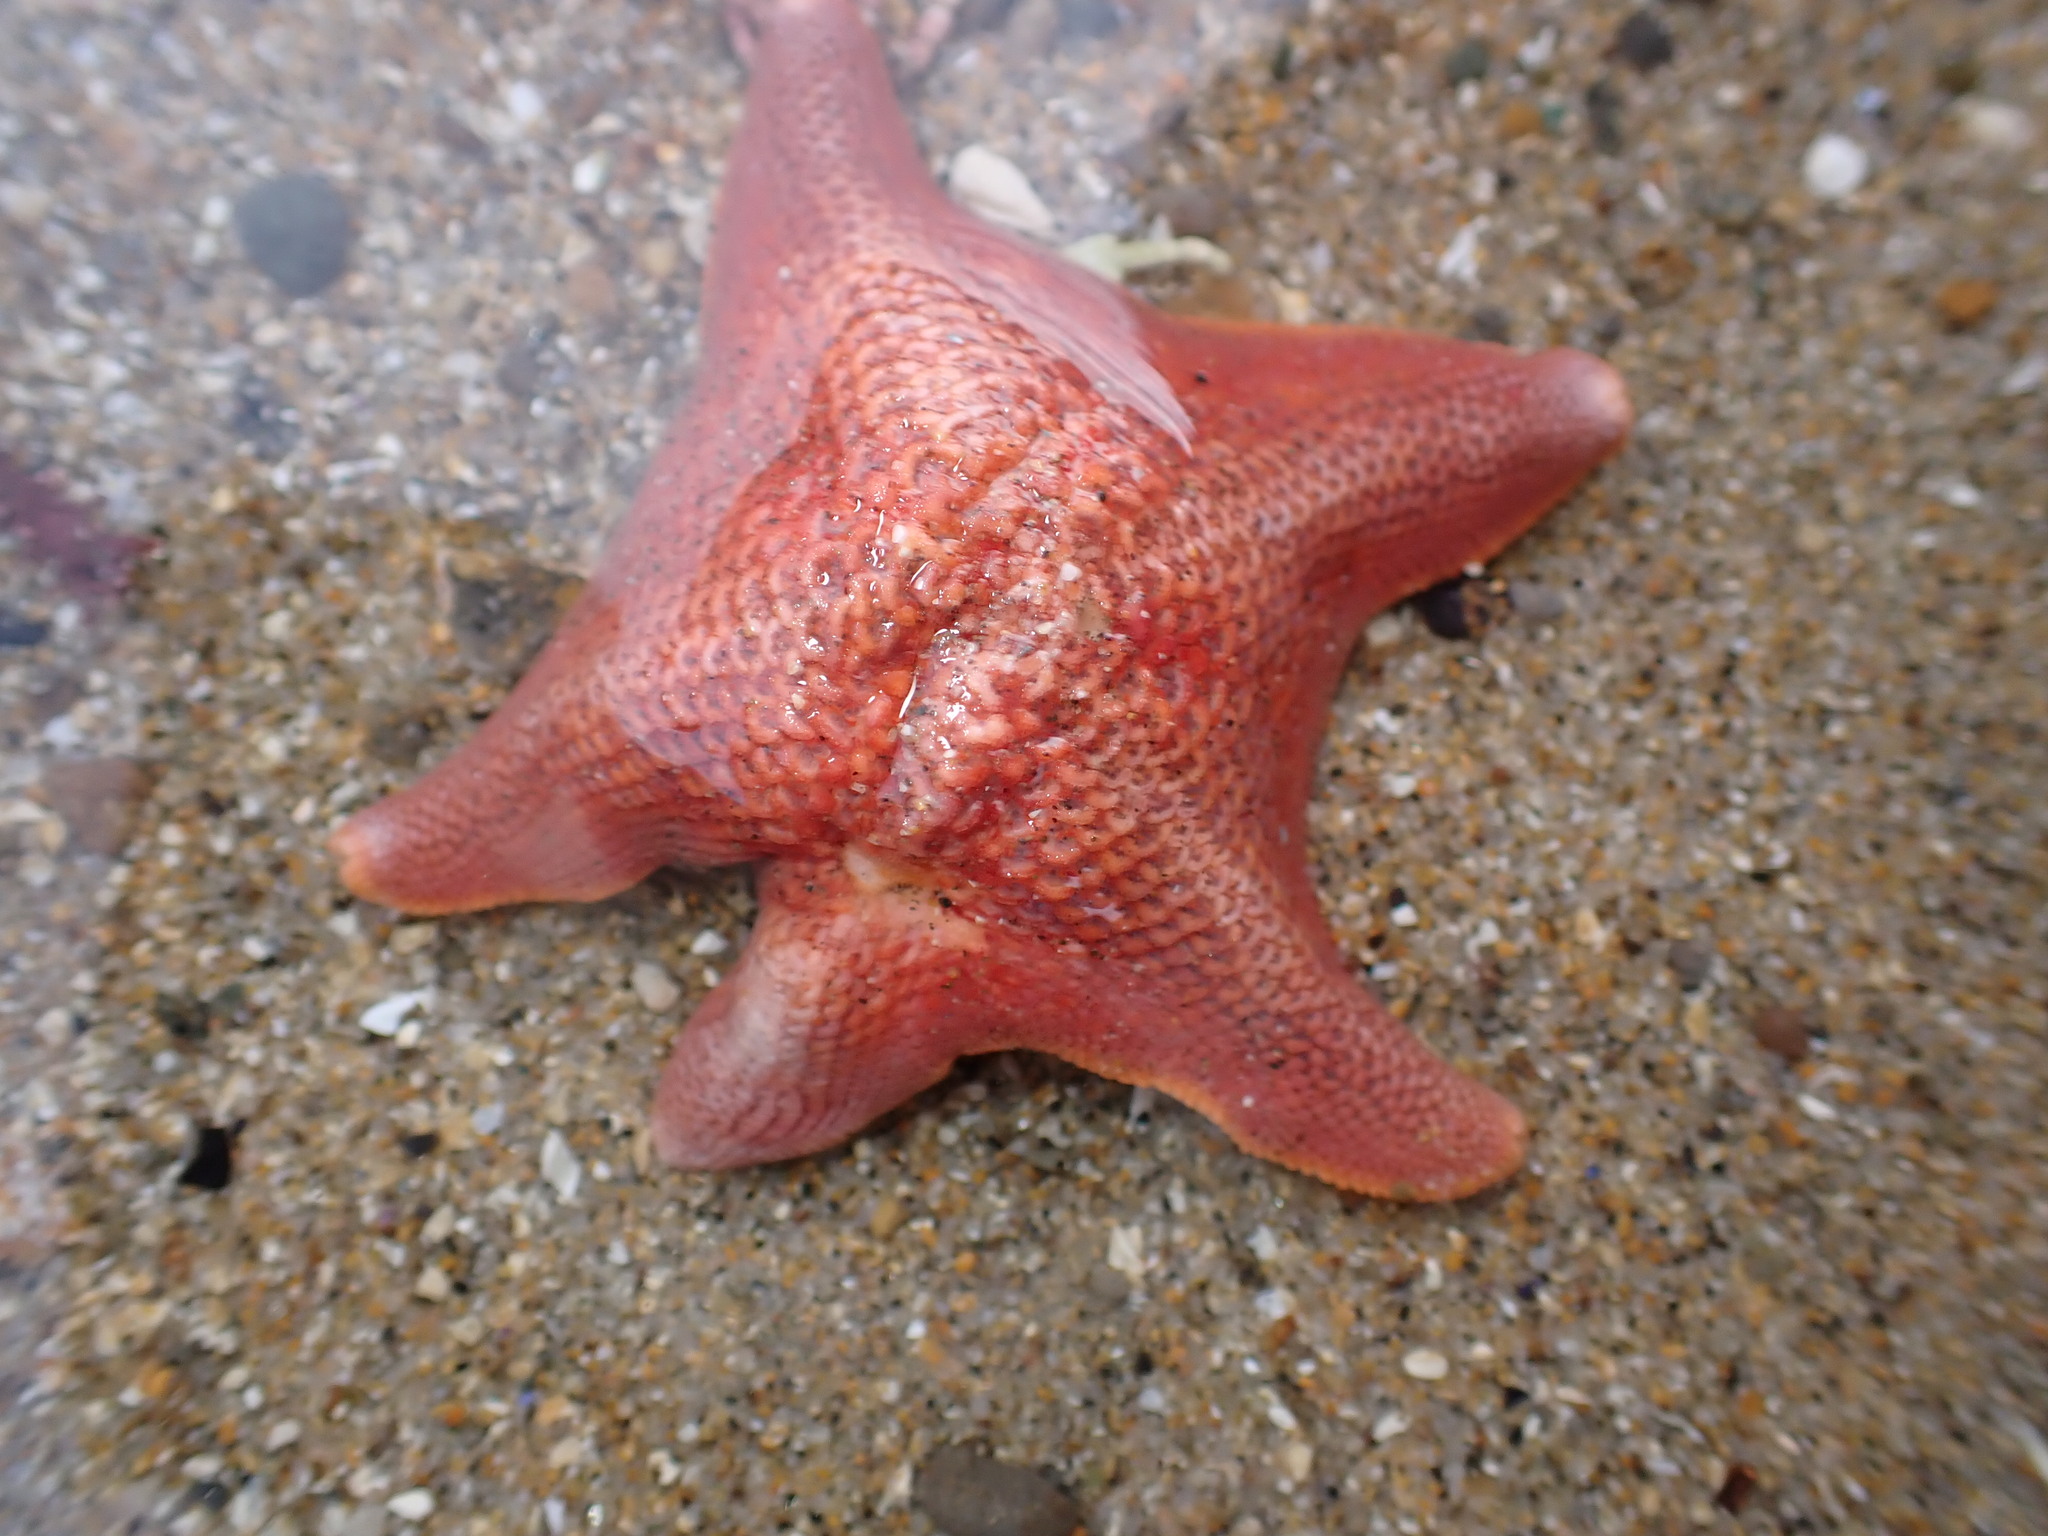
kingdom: Animalia
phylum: Echinodermata
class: Asteroidea
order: Valvatida
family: Asterinidae
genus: Patiria
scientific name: Patiria miniata
